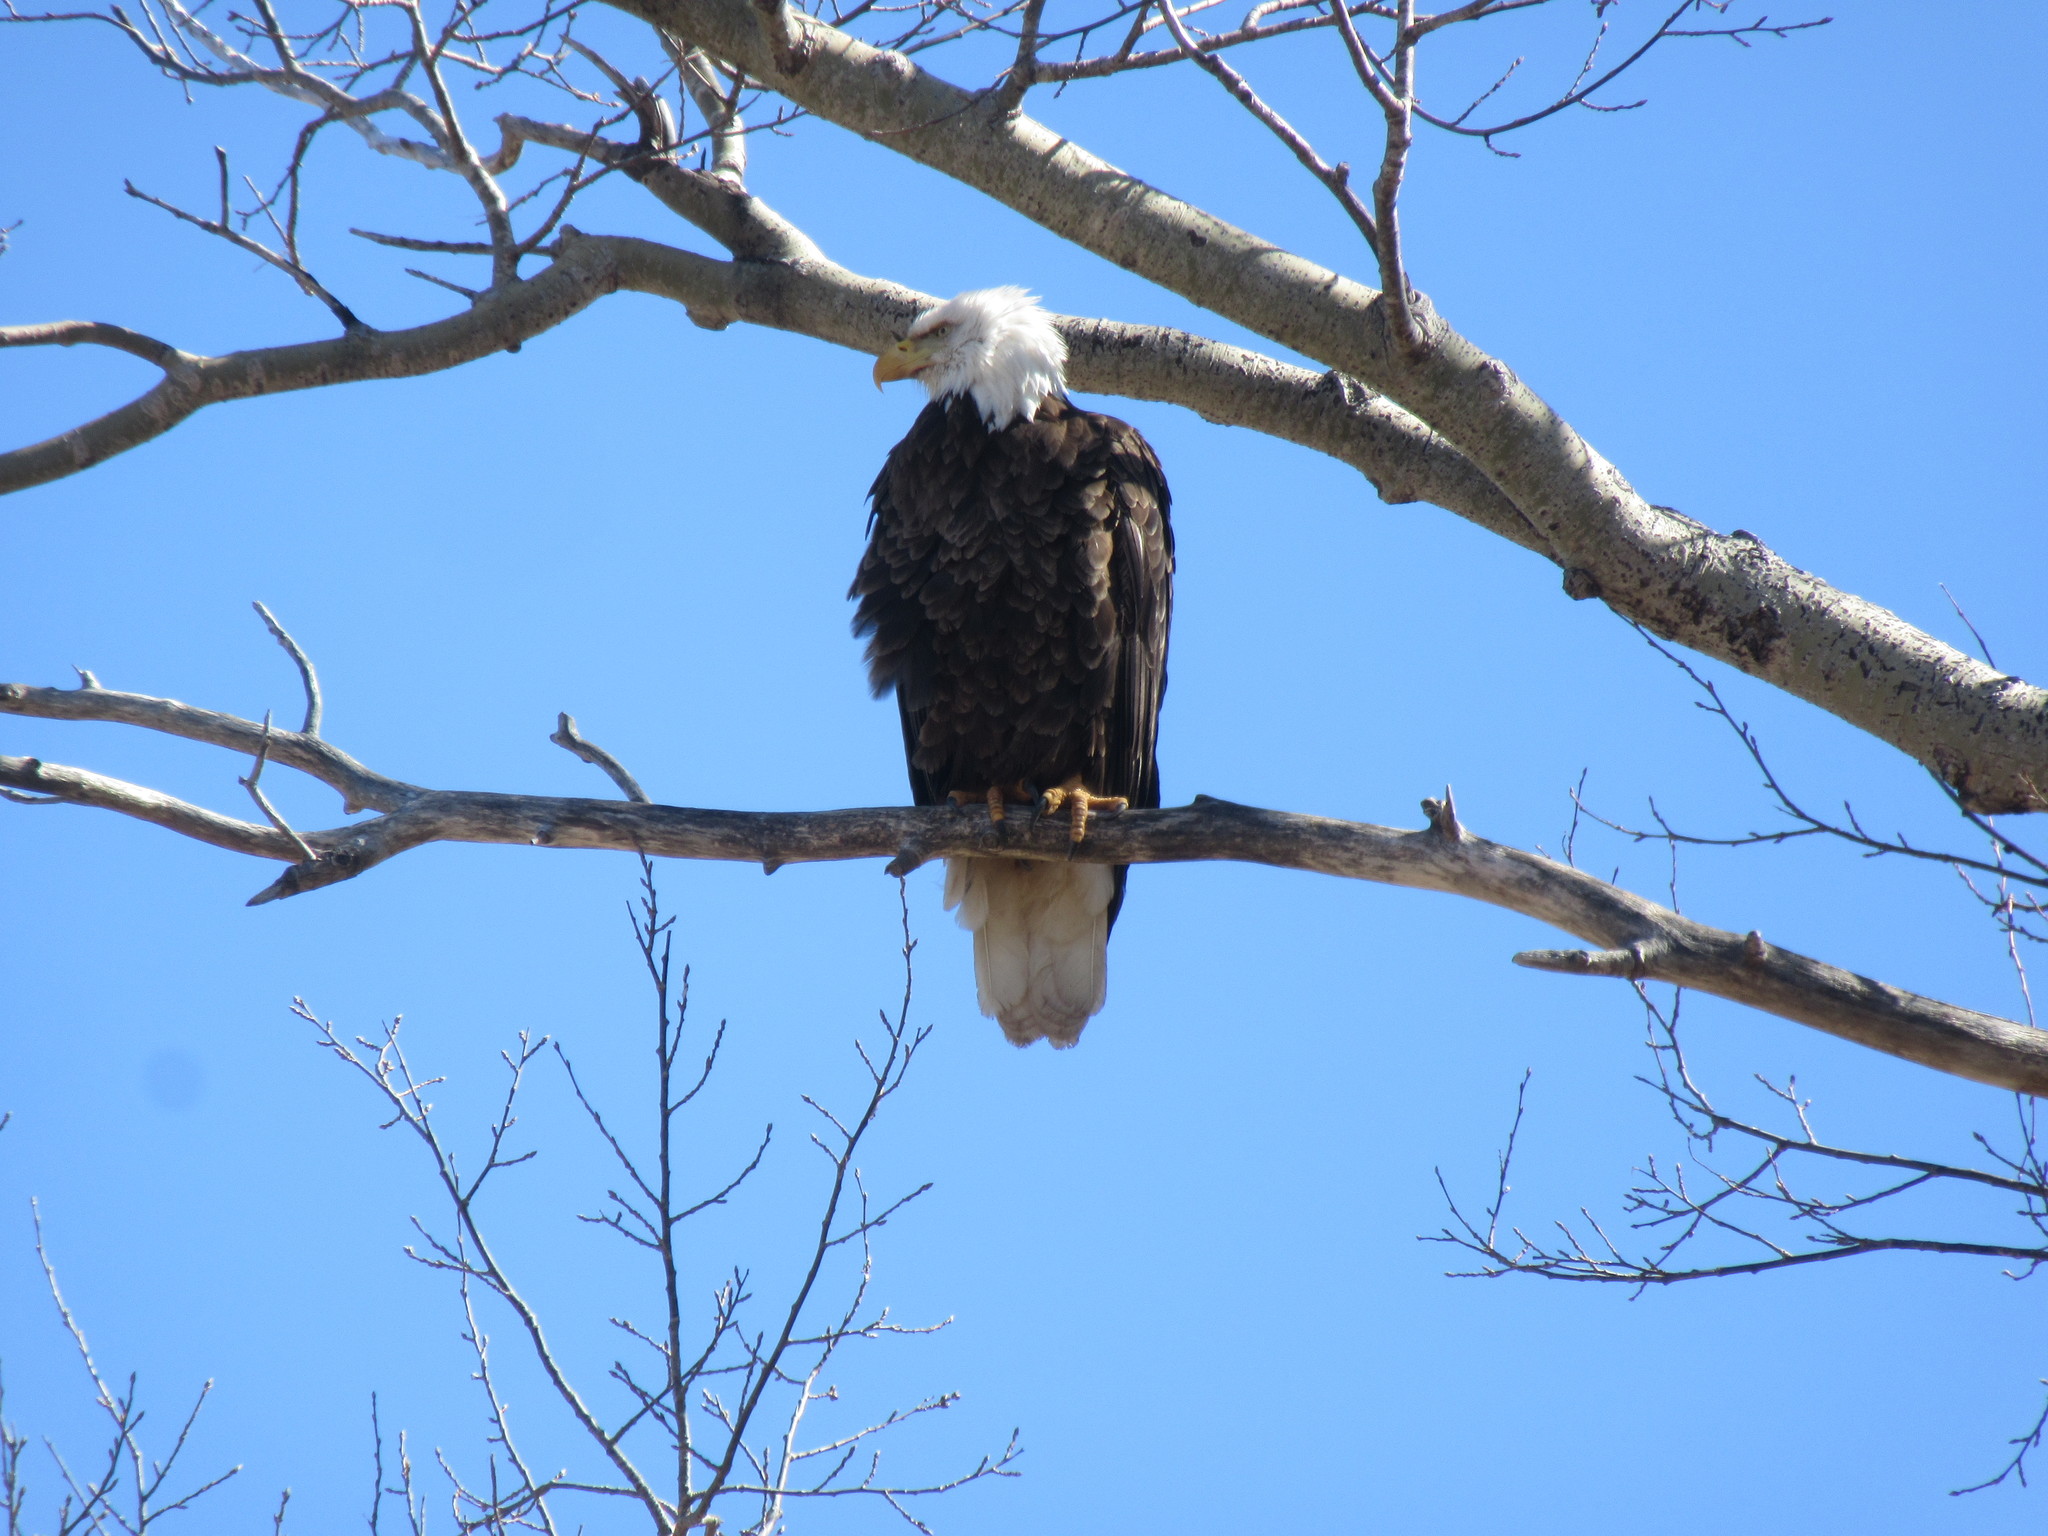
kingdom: Animalia
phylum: Chordata
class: Aves
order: Accipitriformes
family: Accipitridae
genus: Haliaeetus
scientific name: Haliaeetus leucocephalus
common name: Bald eagle
